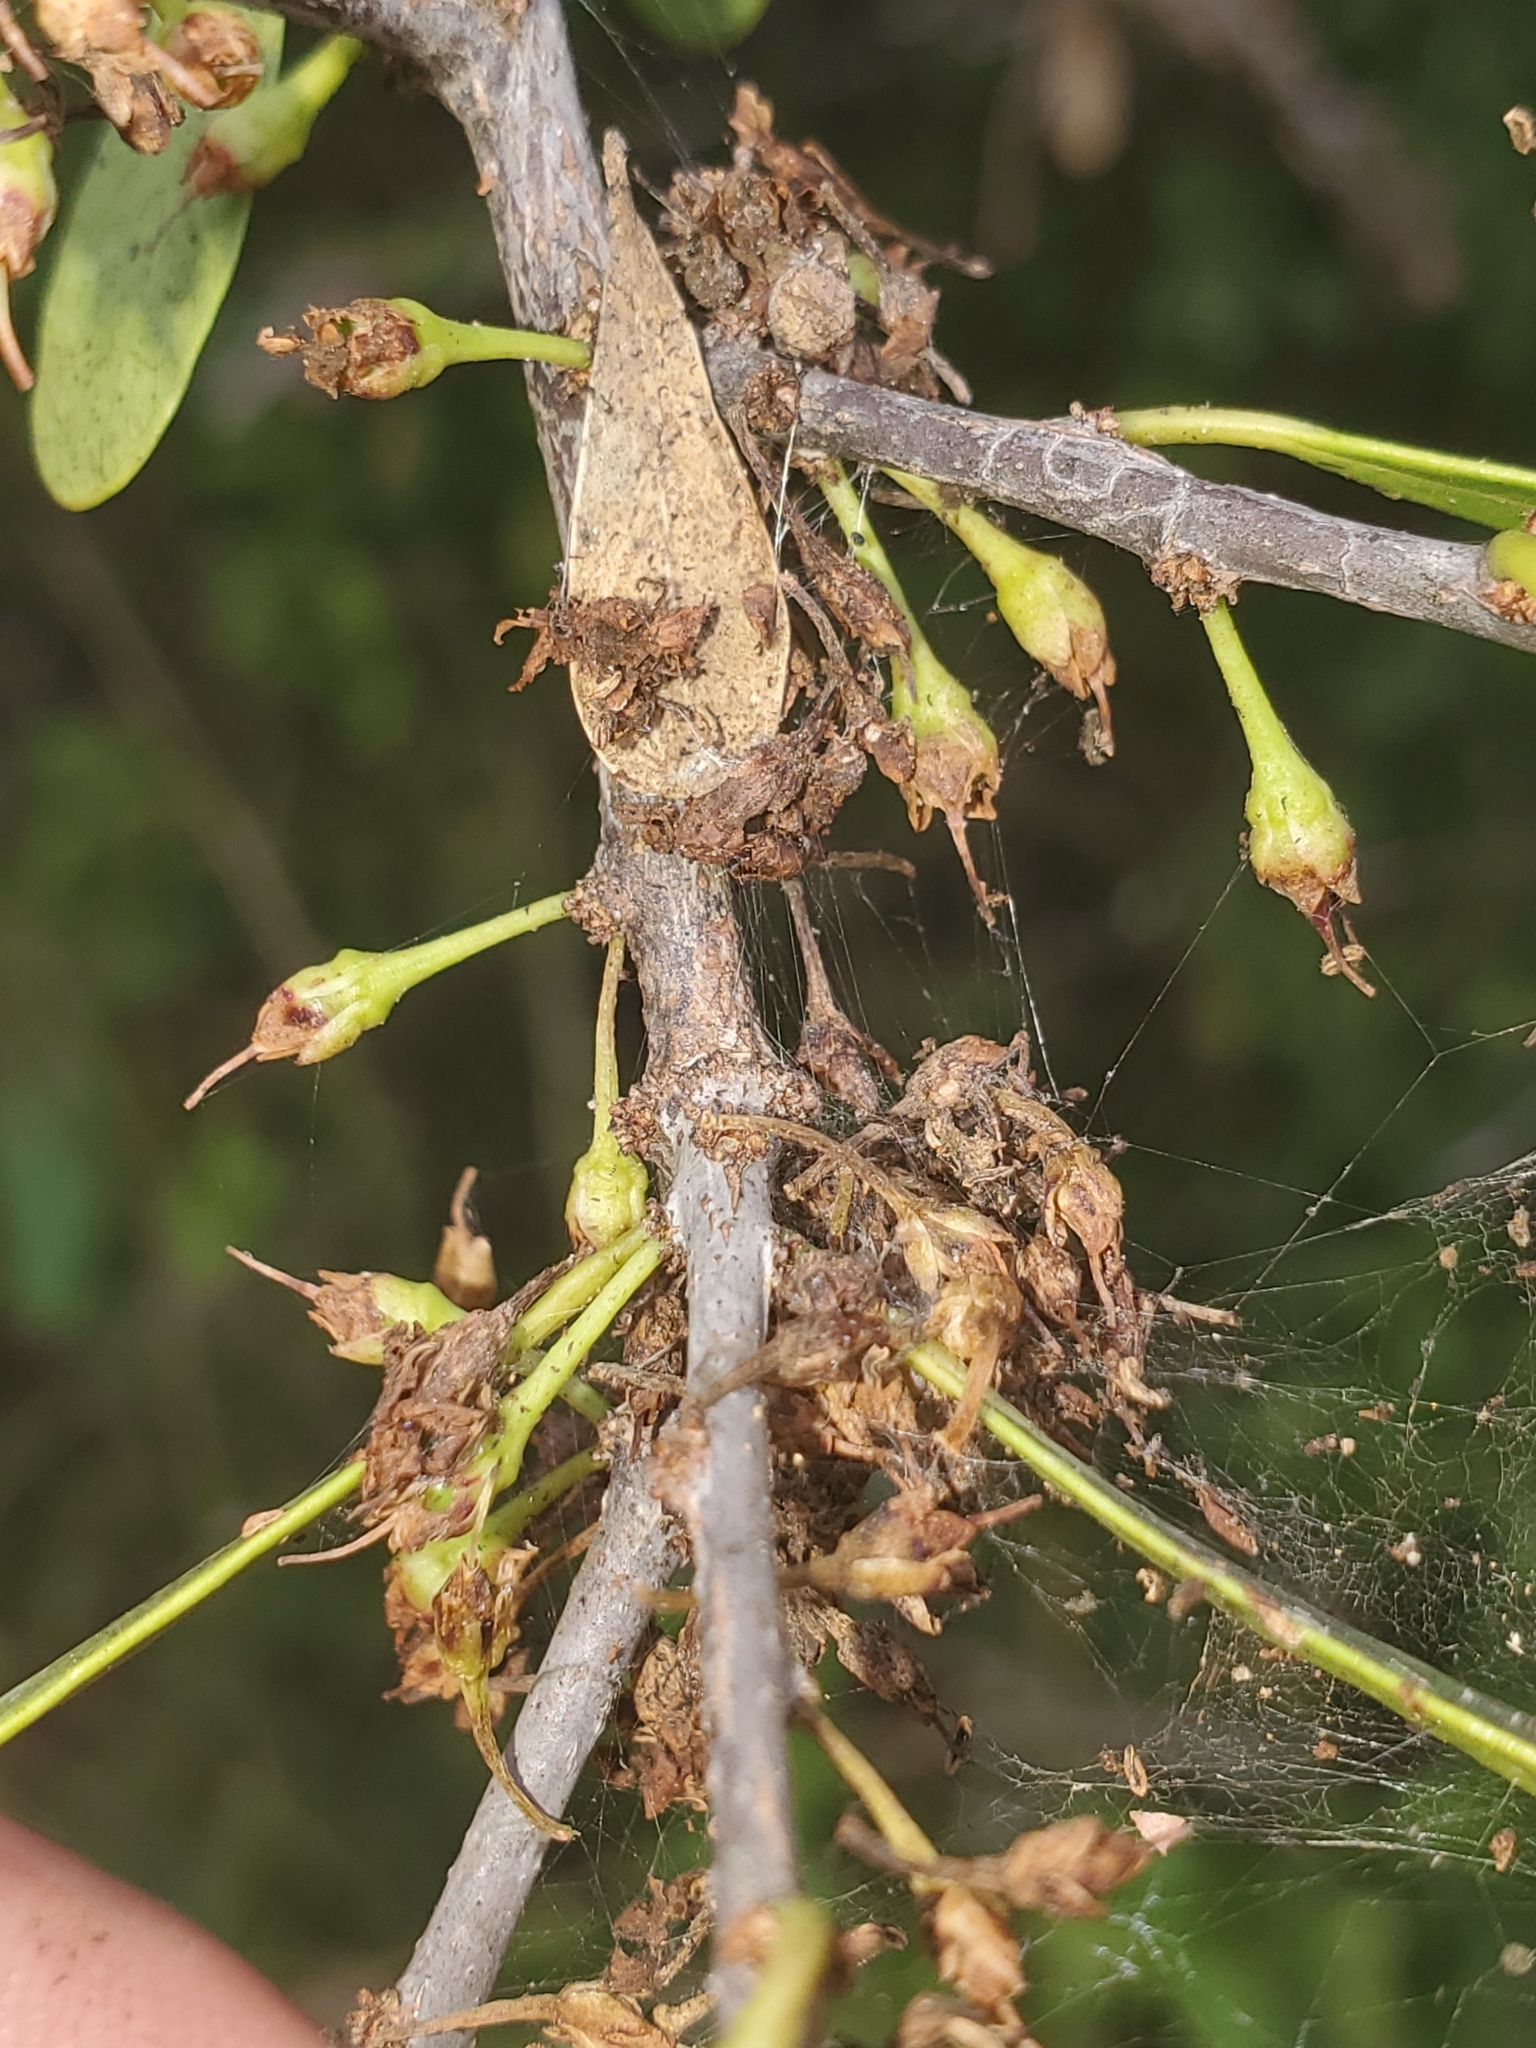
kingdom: Plantae
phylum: Tracheophyta
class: Magnoliopsida
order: Ericales
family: Sapotaceae
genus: Sideroxylon
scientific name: Sideroxylon celastrinum
